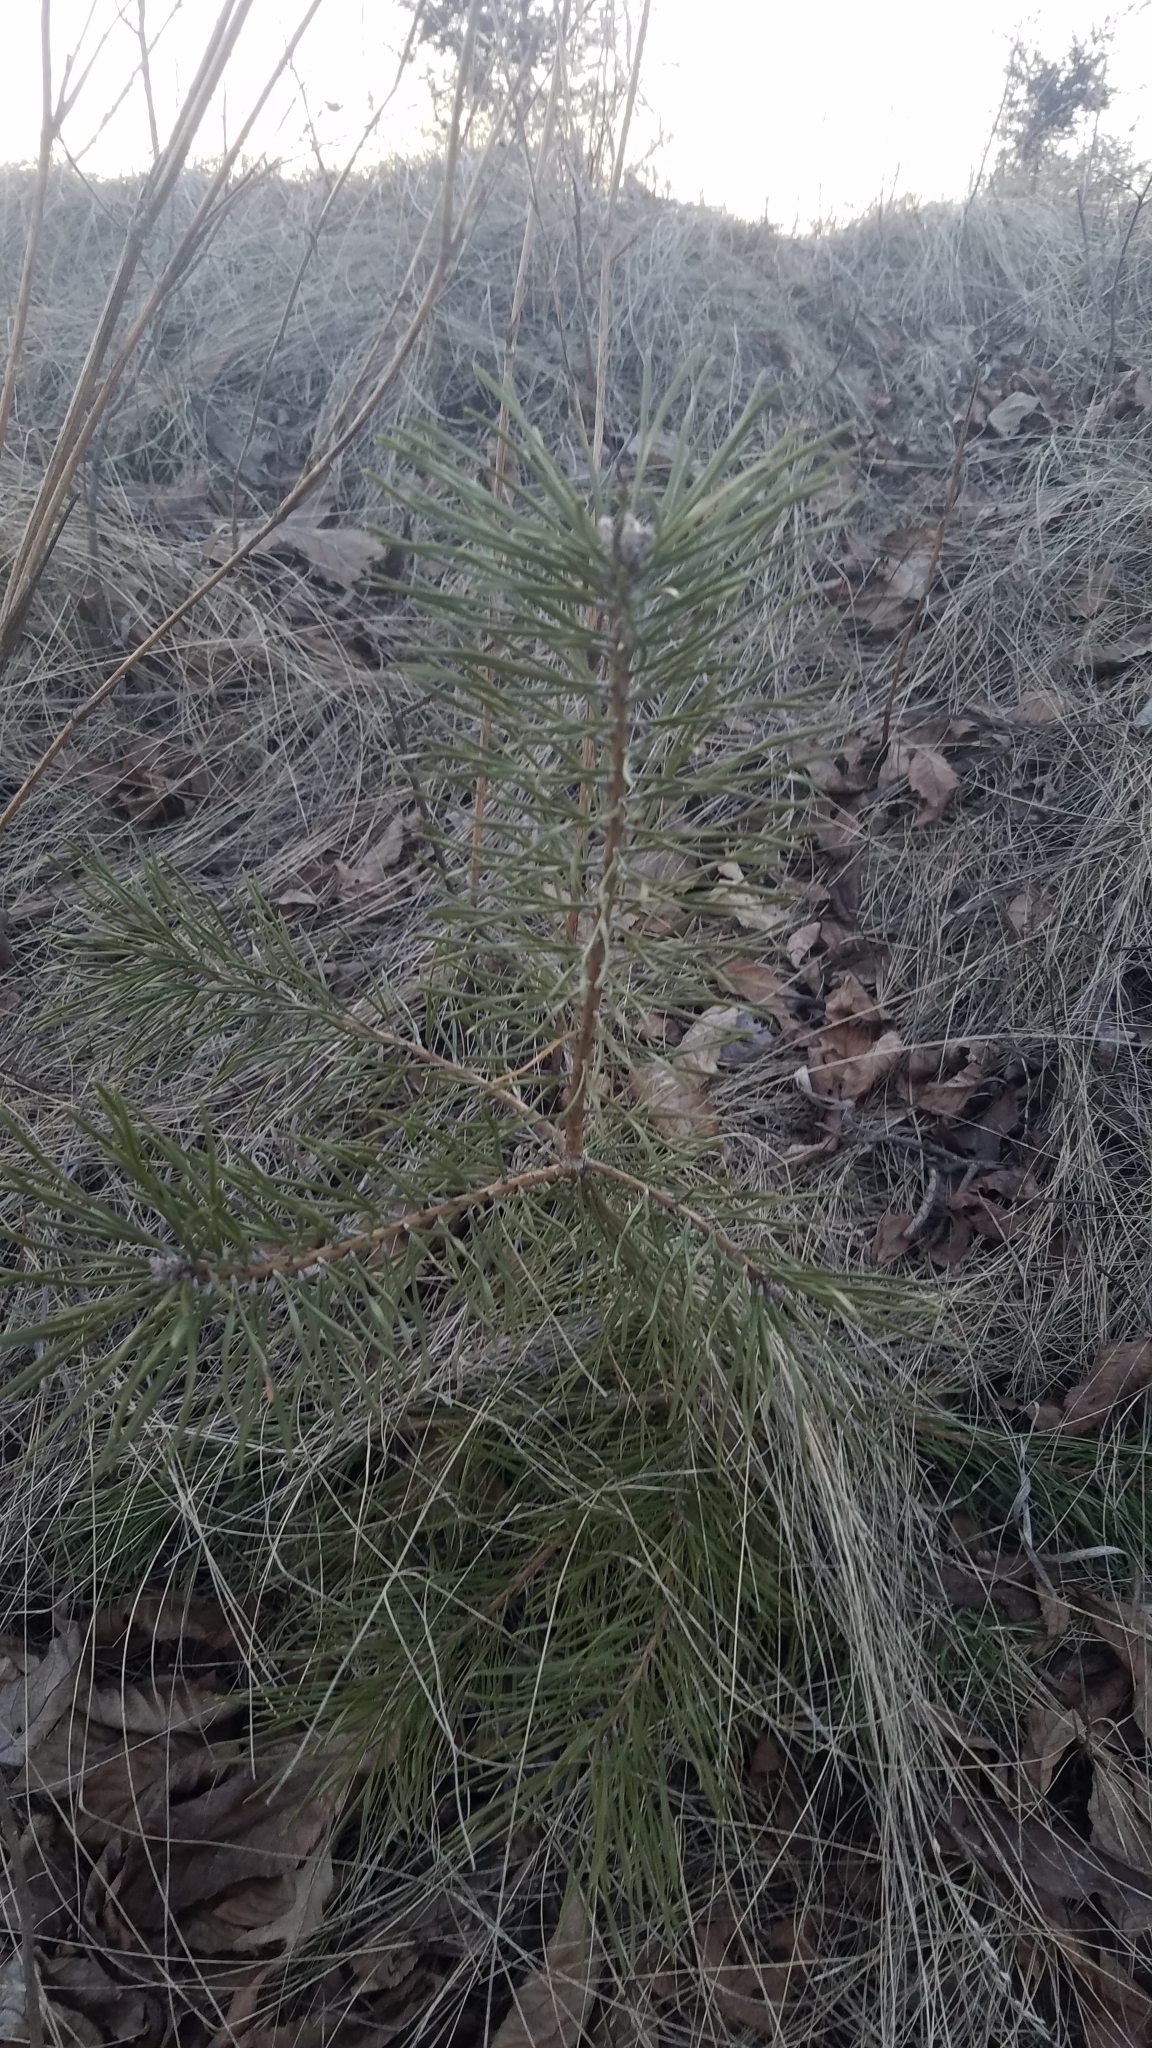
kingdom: Plantae
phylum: Tracheophyta
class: Pinopsida
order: Pinales
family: Pinaceae
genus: Pinus
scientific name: Pinus sylvestris
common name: Scots pine
